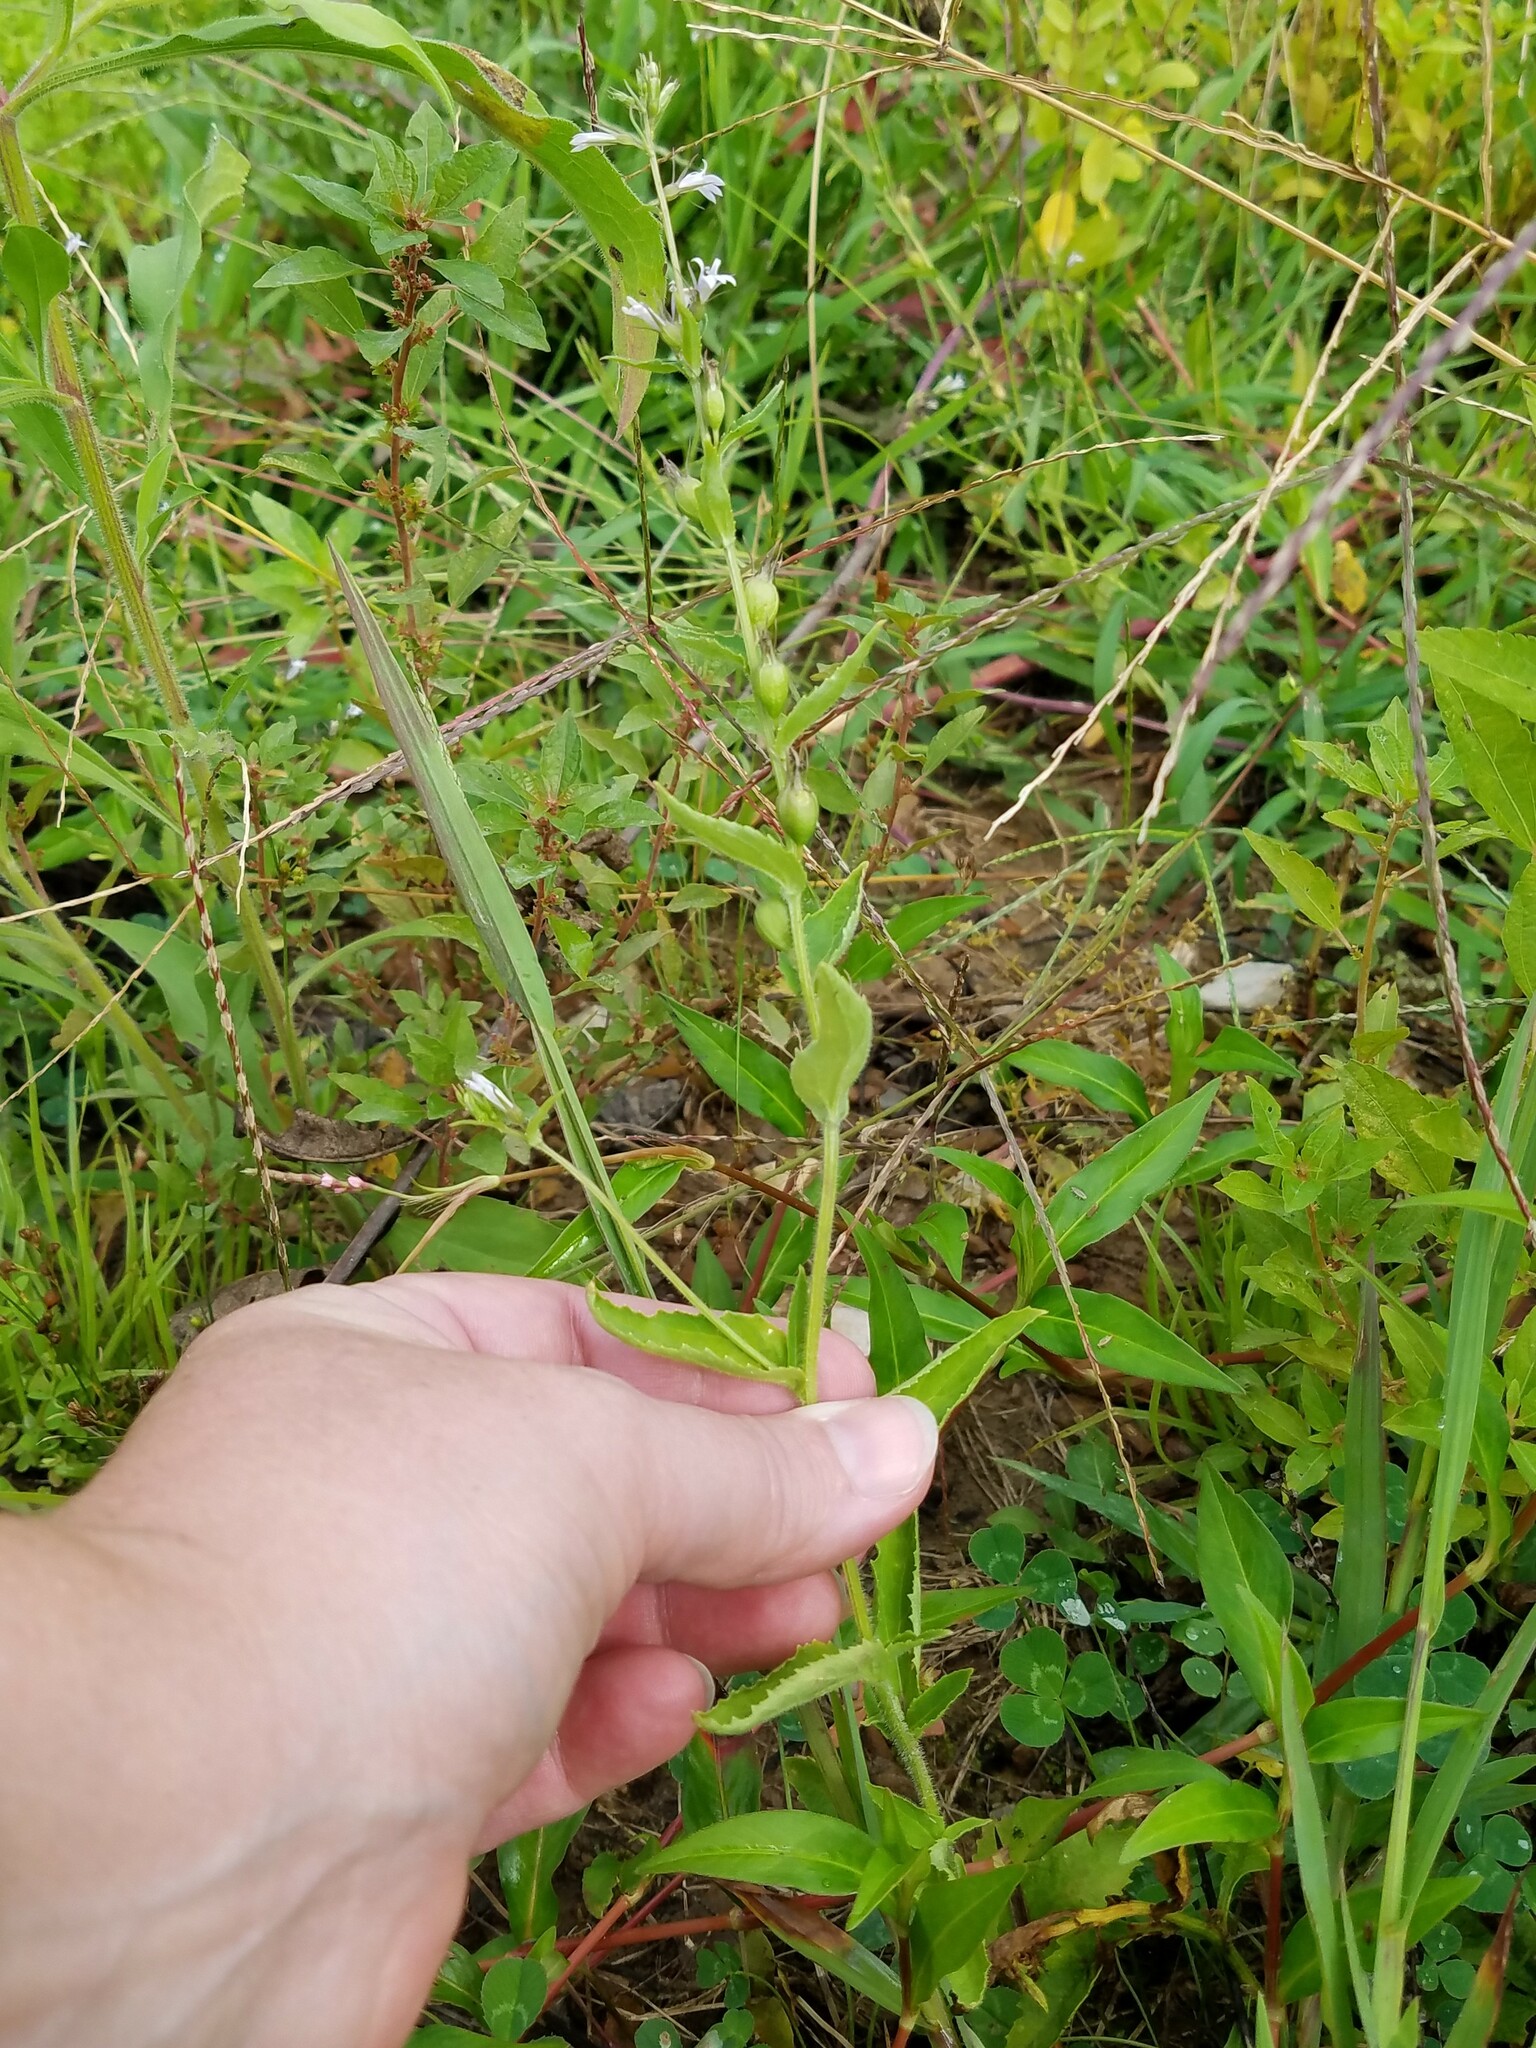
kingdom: Plantae
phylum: Tracheophyta
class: Magnoliopsida
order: Asterales
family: Campanulaceae
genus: Lobelia
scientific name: Lobelia inflata
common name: Indian tobacco
